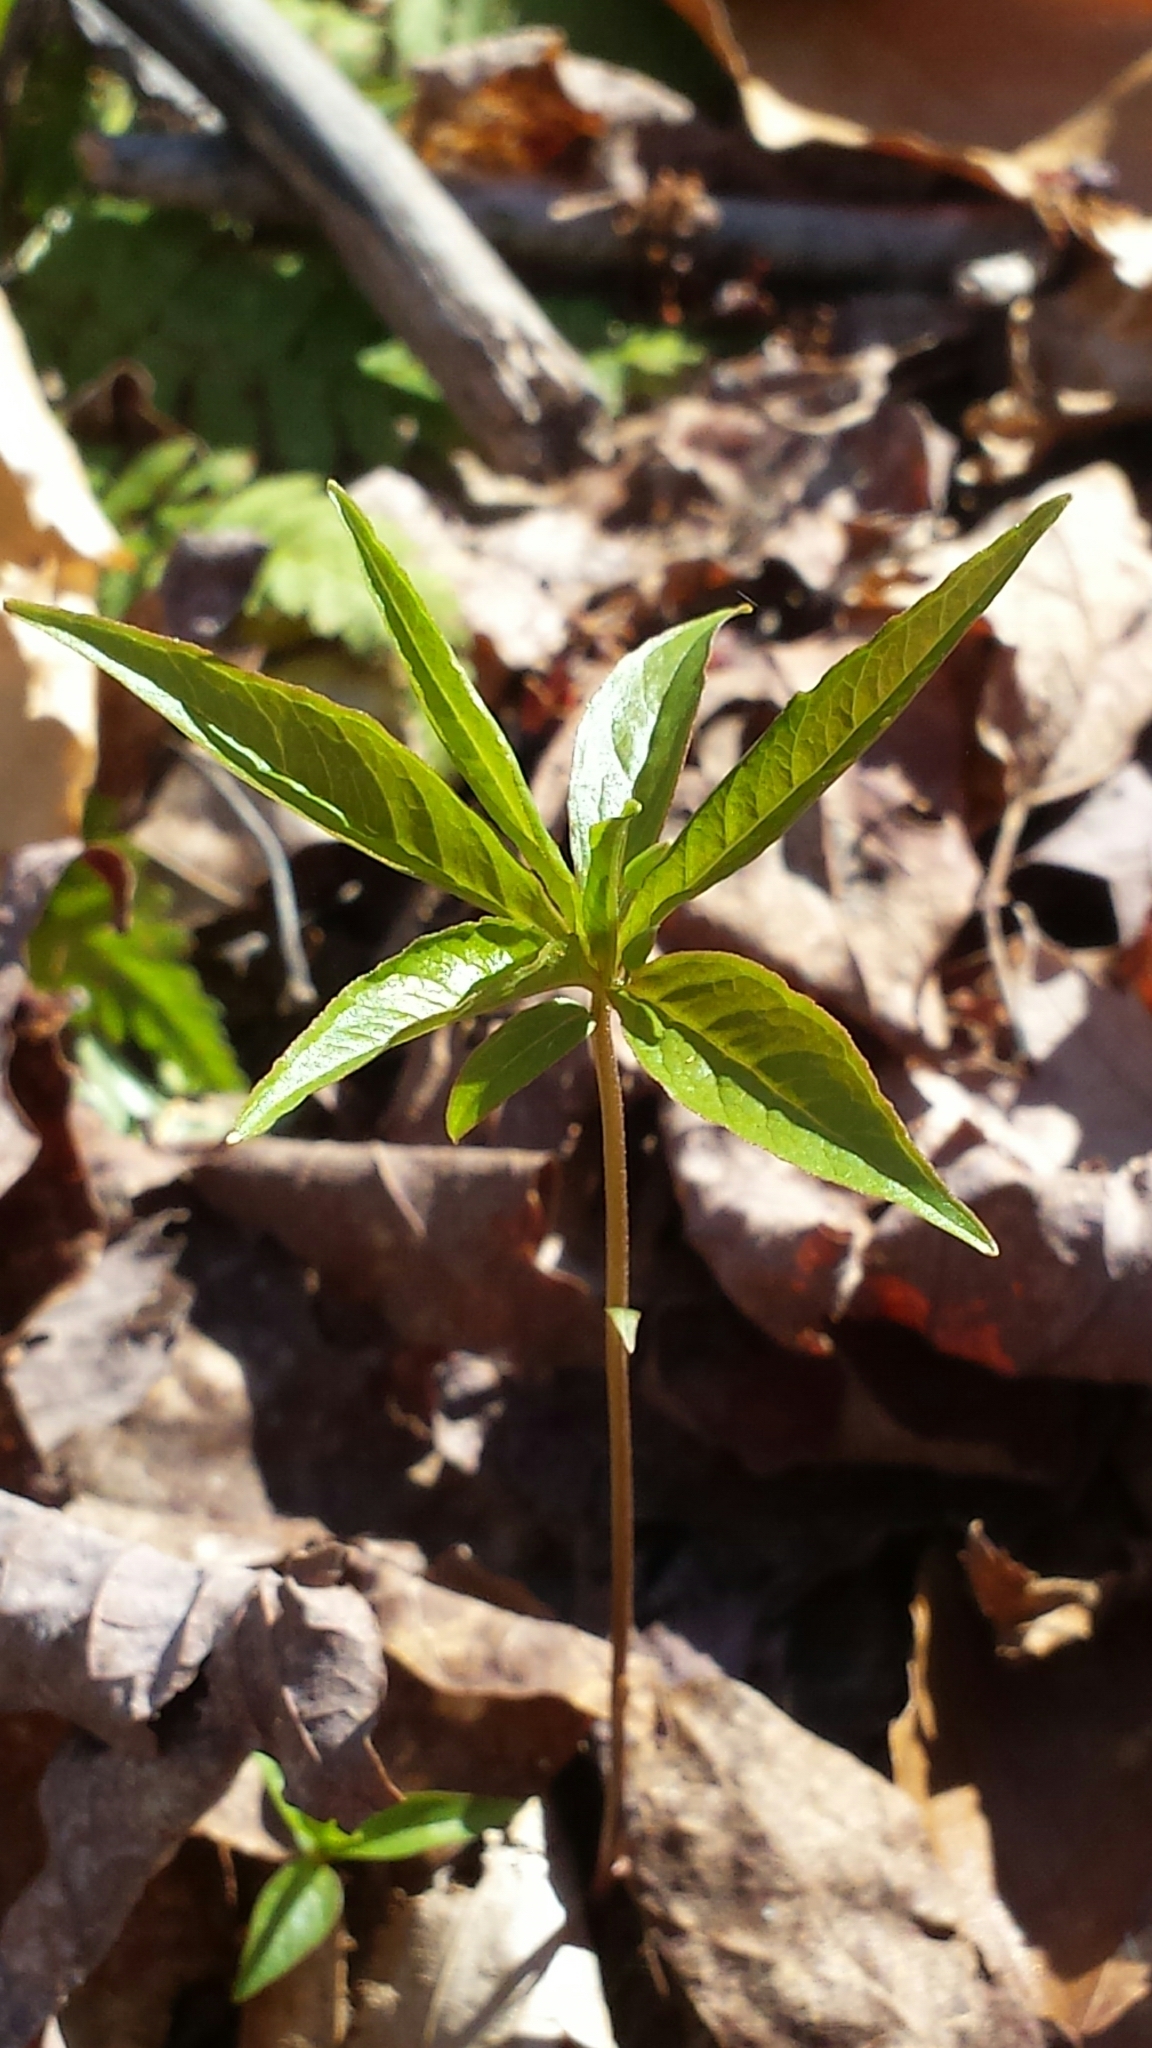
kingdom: Plantae
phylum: Tracheophyta
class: Magnoliopsida
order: Ericales
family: Primulaceae
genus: Lysimachia
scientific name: Lysimachia borealis
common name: American starflower
